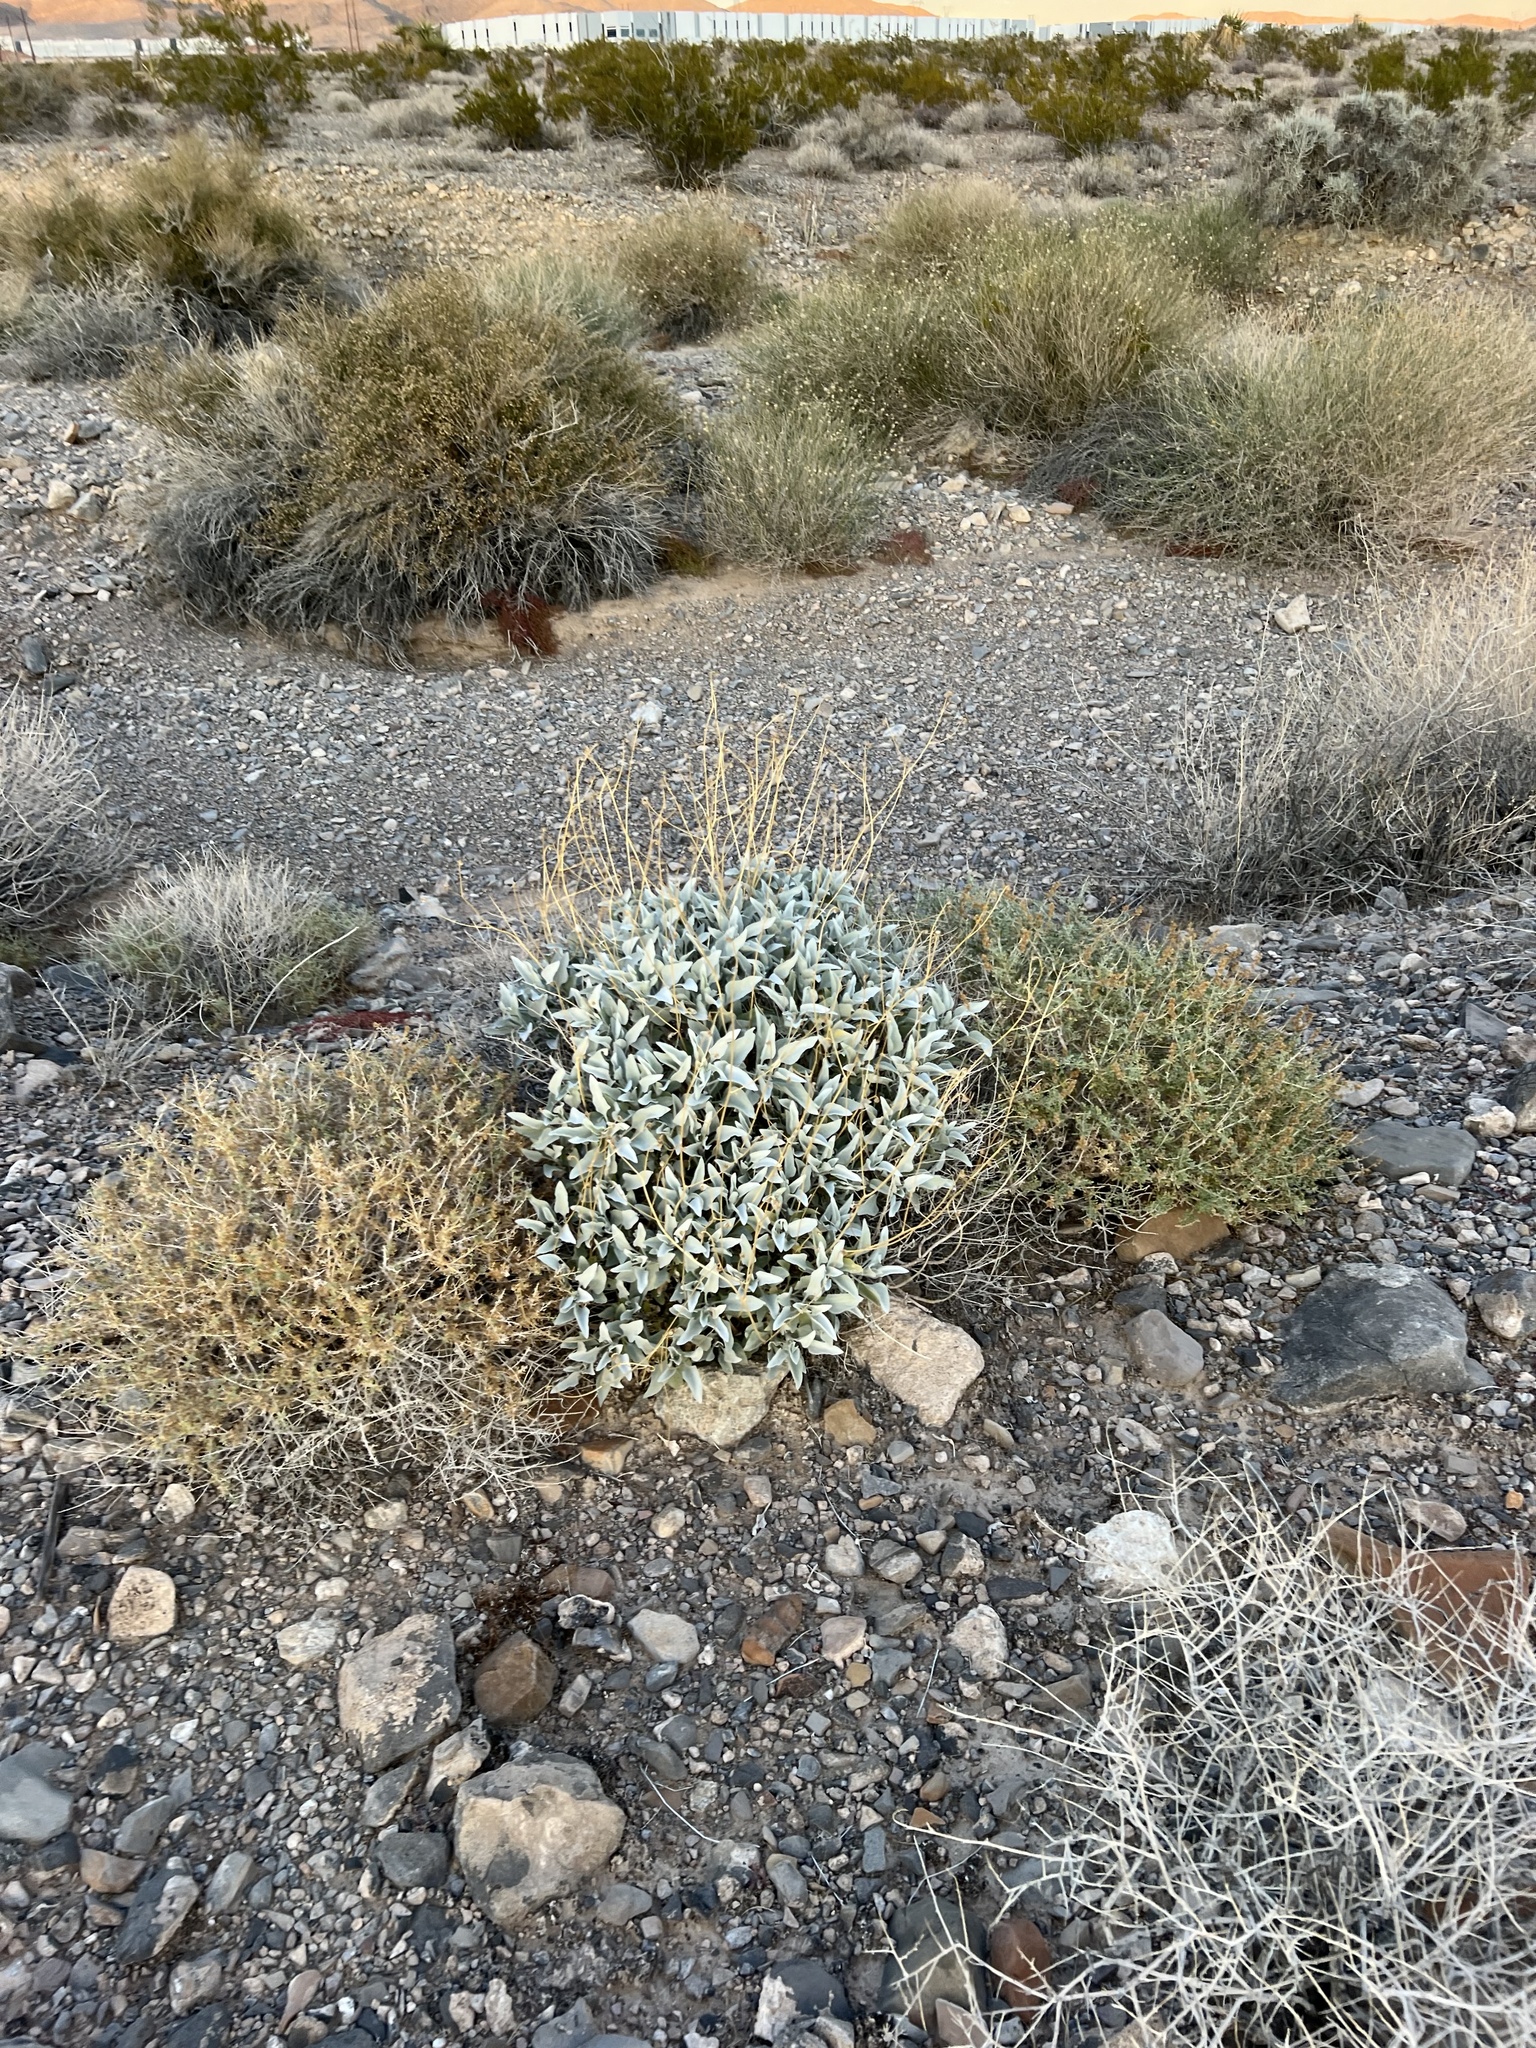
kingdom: Plantae
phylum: Tracheophyta
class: Magnoliopsida
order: Asterales
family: Asteraceae
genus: Encelia
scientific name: Encelia farinosa
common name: Brittlebush
